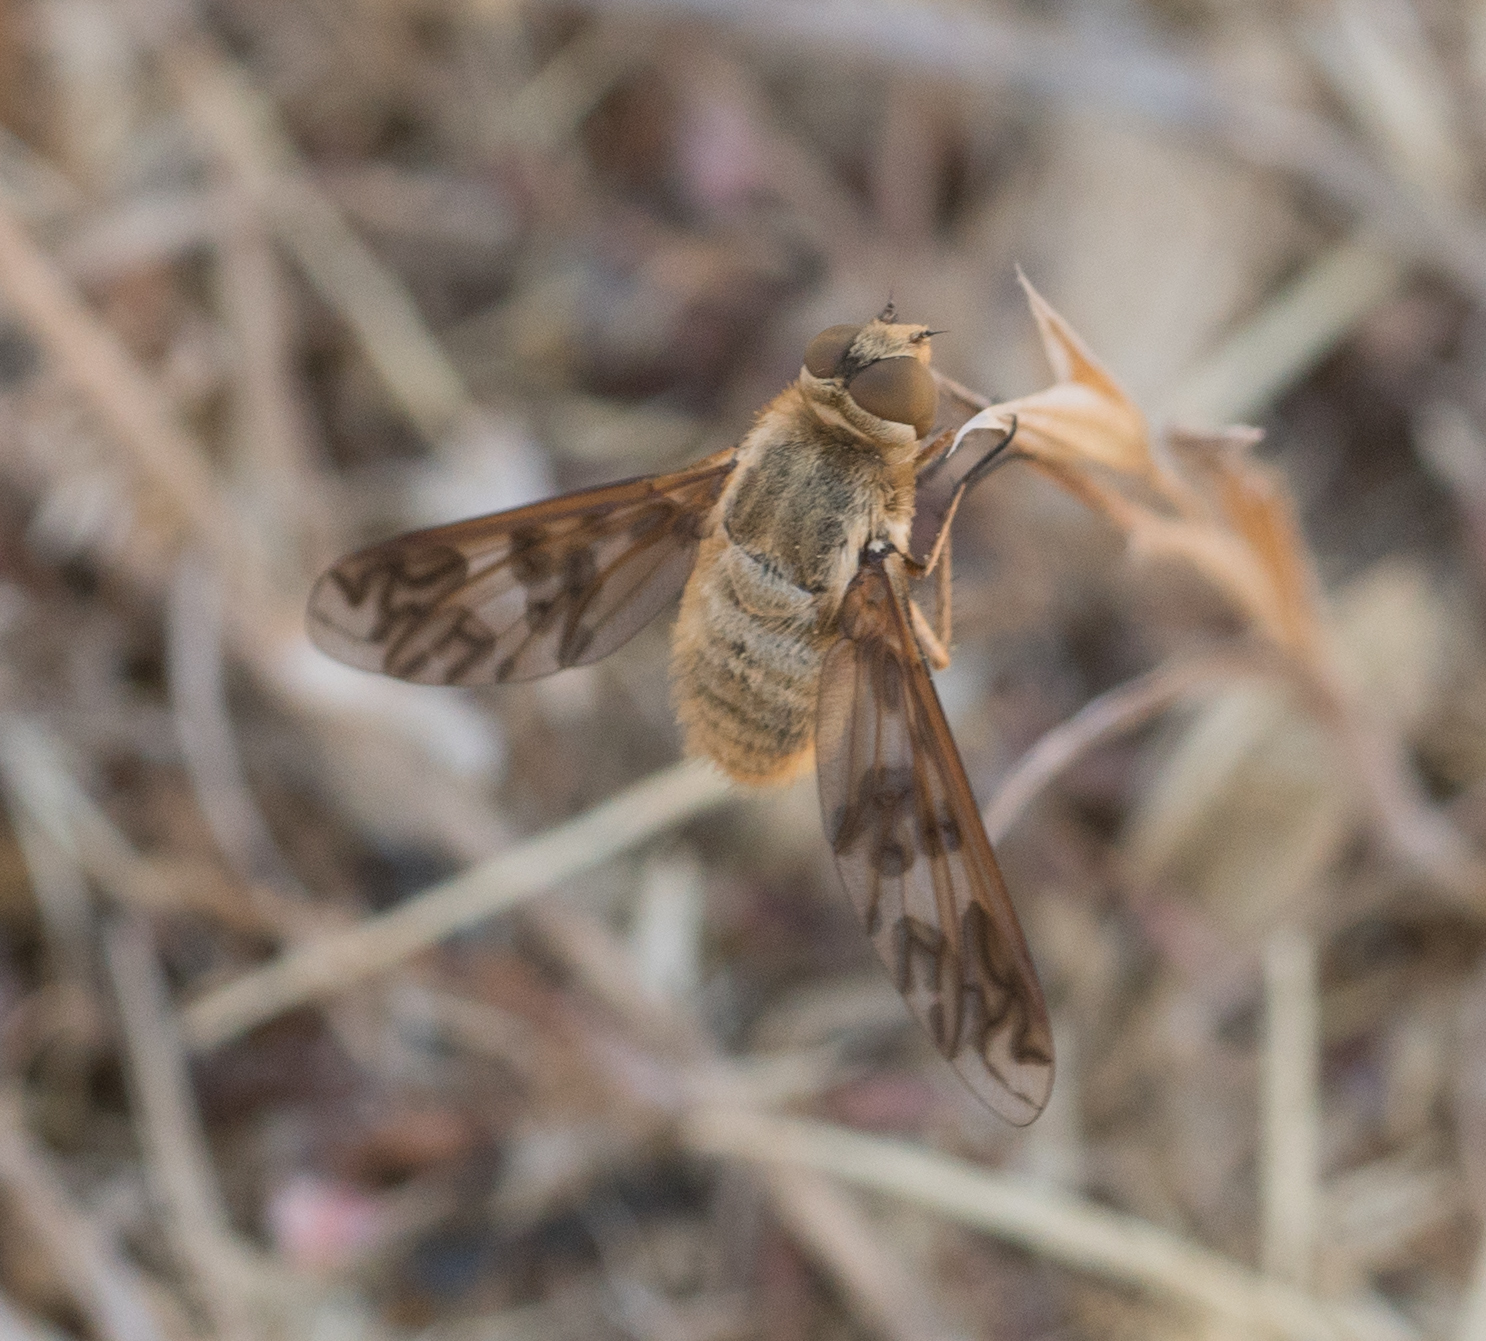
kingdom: Animalia
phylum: Arthropoda
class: Insecta
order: Diptera
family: Bombyliidae
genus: Dipalta
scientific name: Dipalta serpentina
